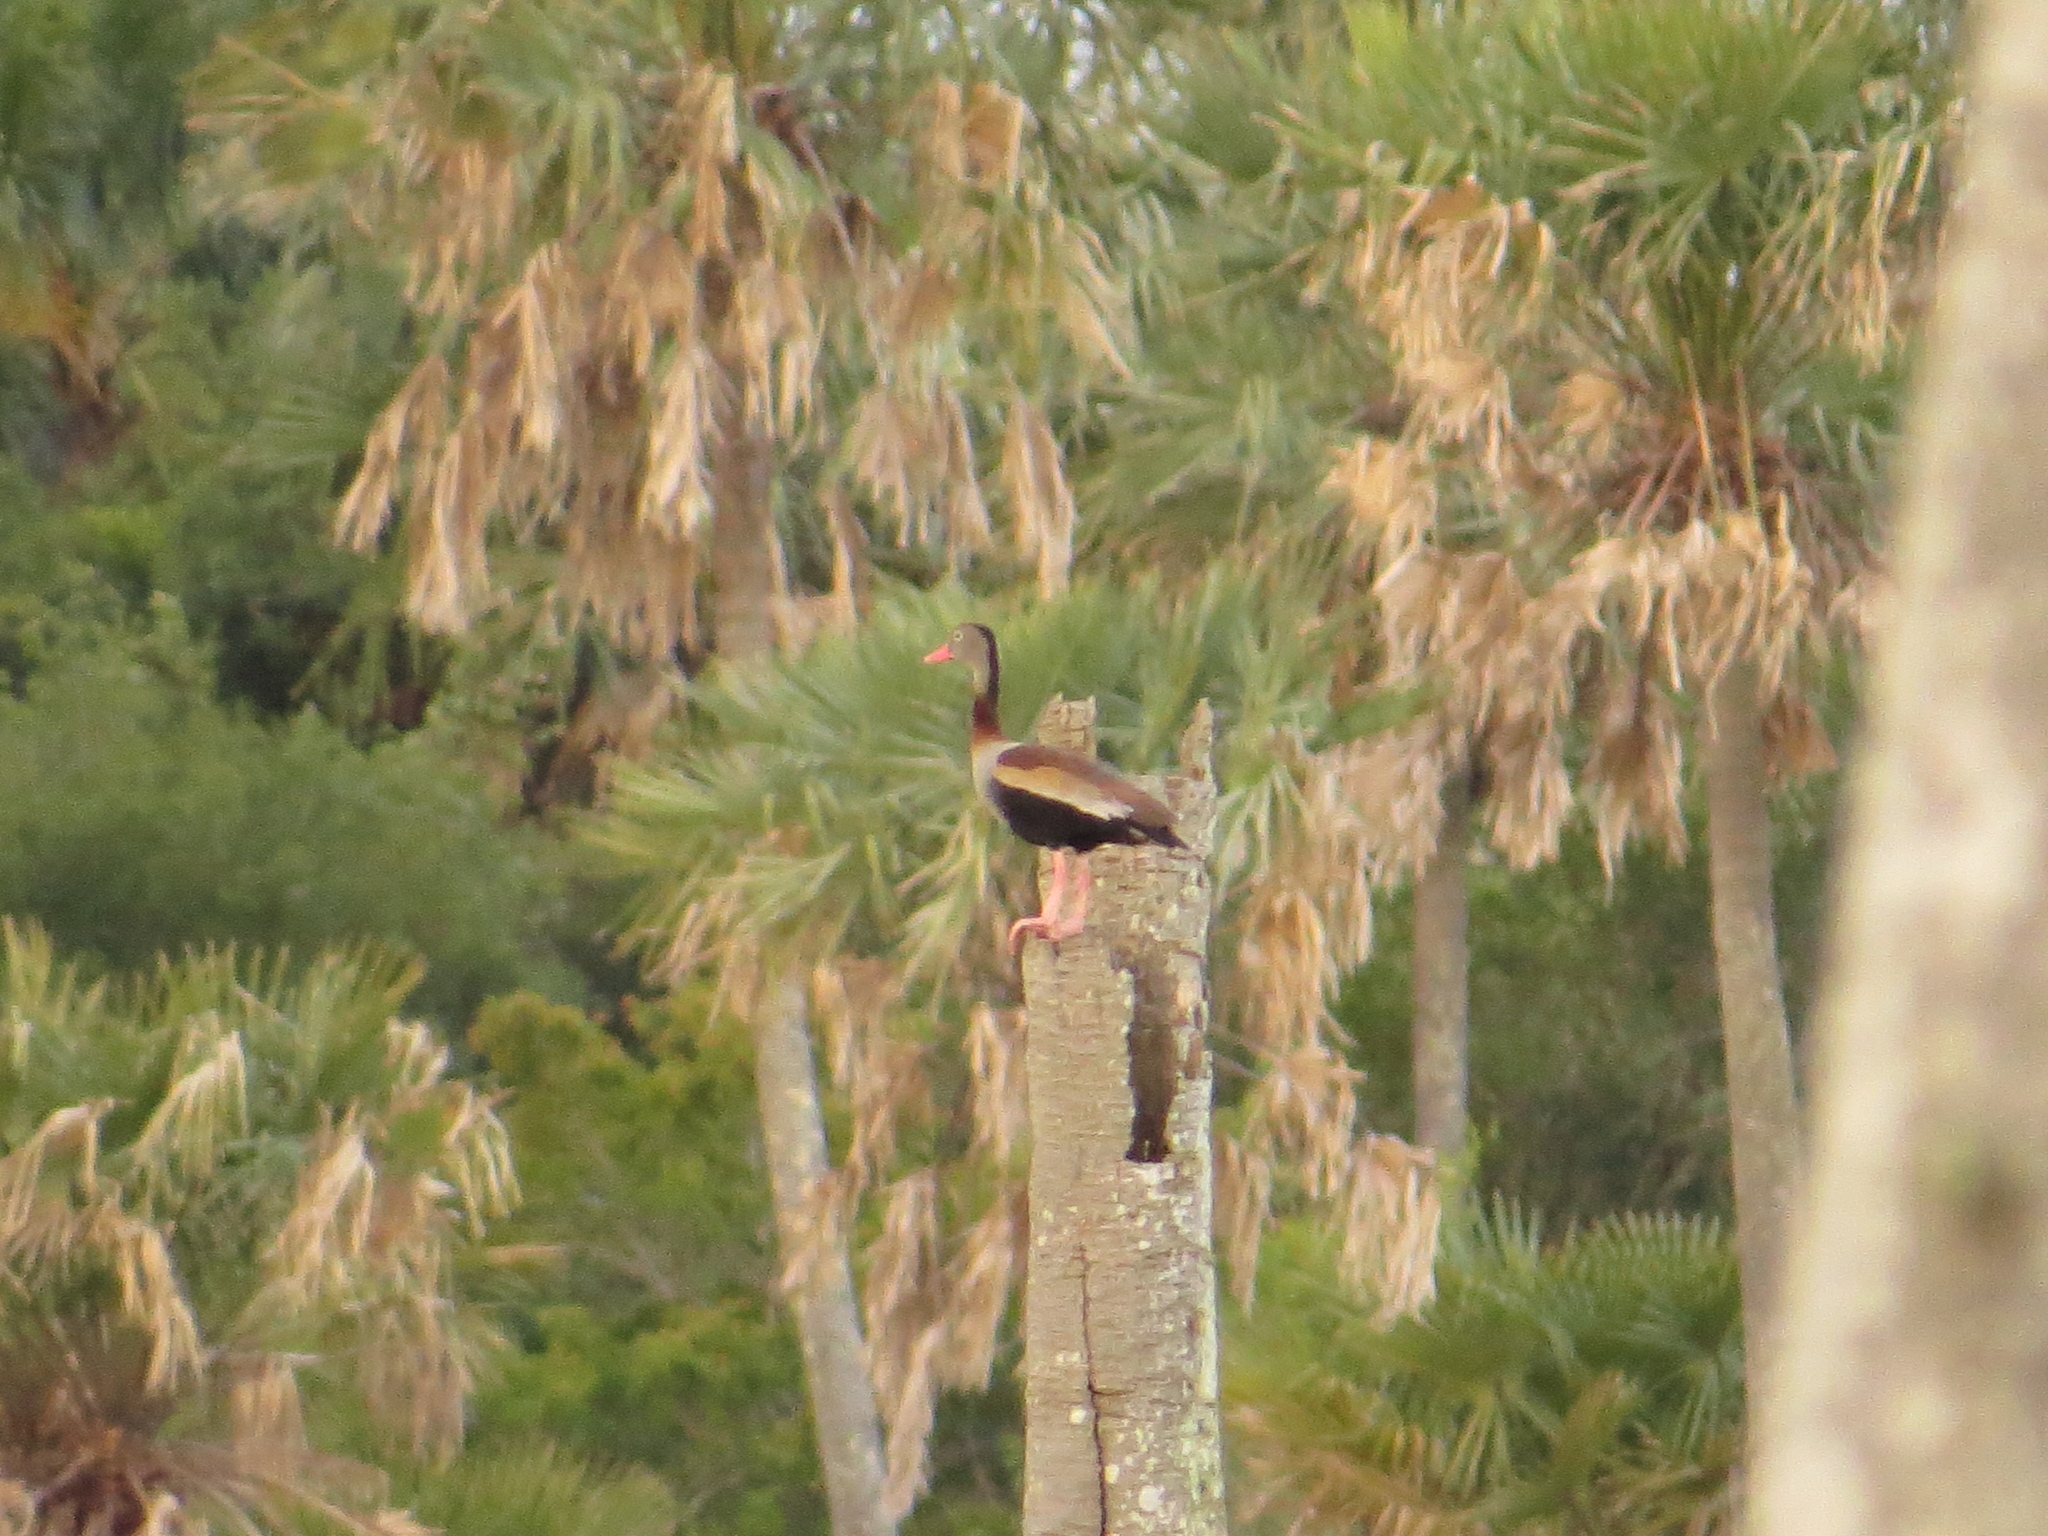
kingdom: Animalia
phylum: Chordata
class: Aves
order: Anseriformes
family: Anatidae
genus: Dendrocygna
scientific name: Dendrocygna autumnalis
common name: Black-bellied whistling duck
